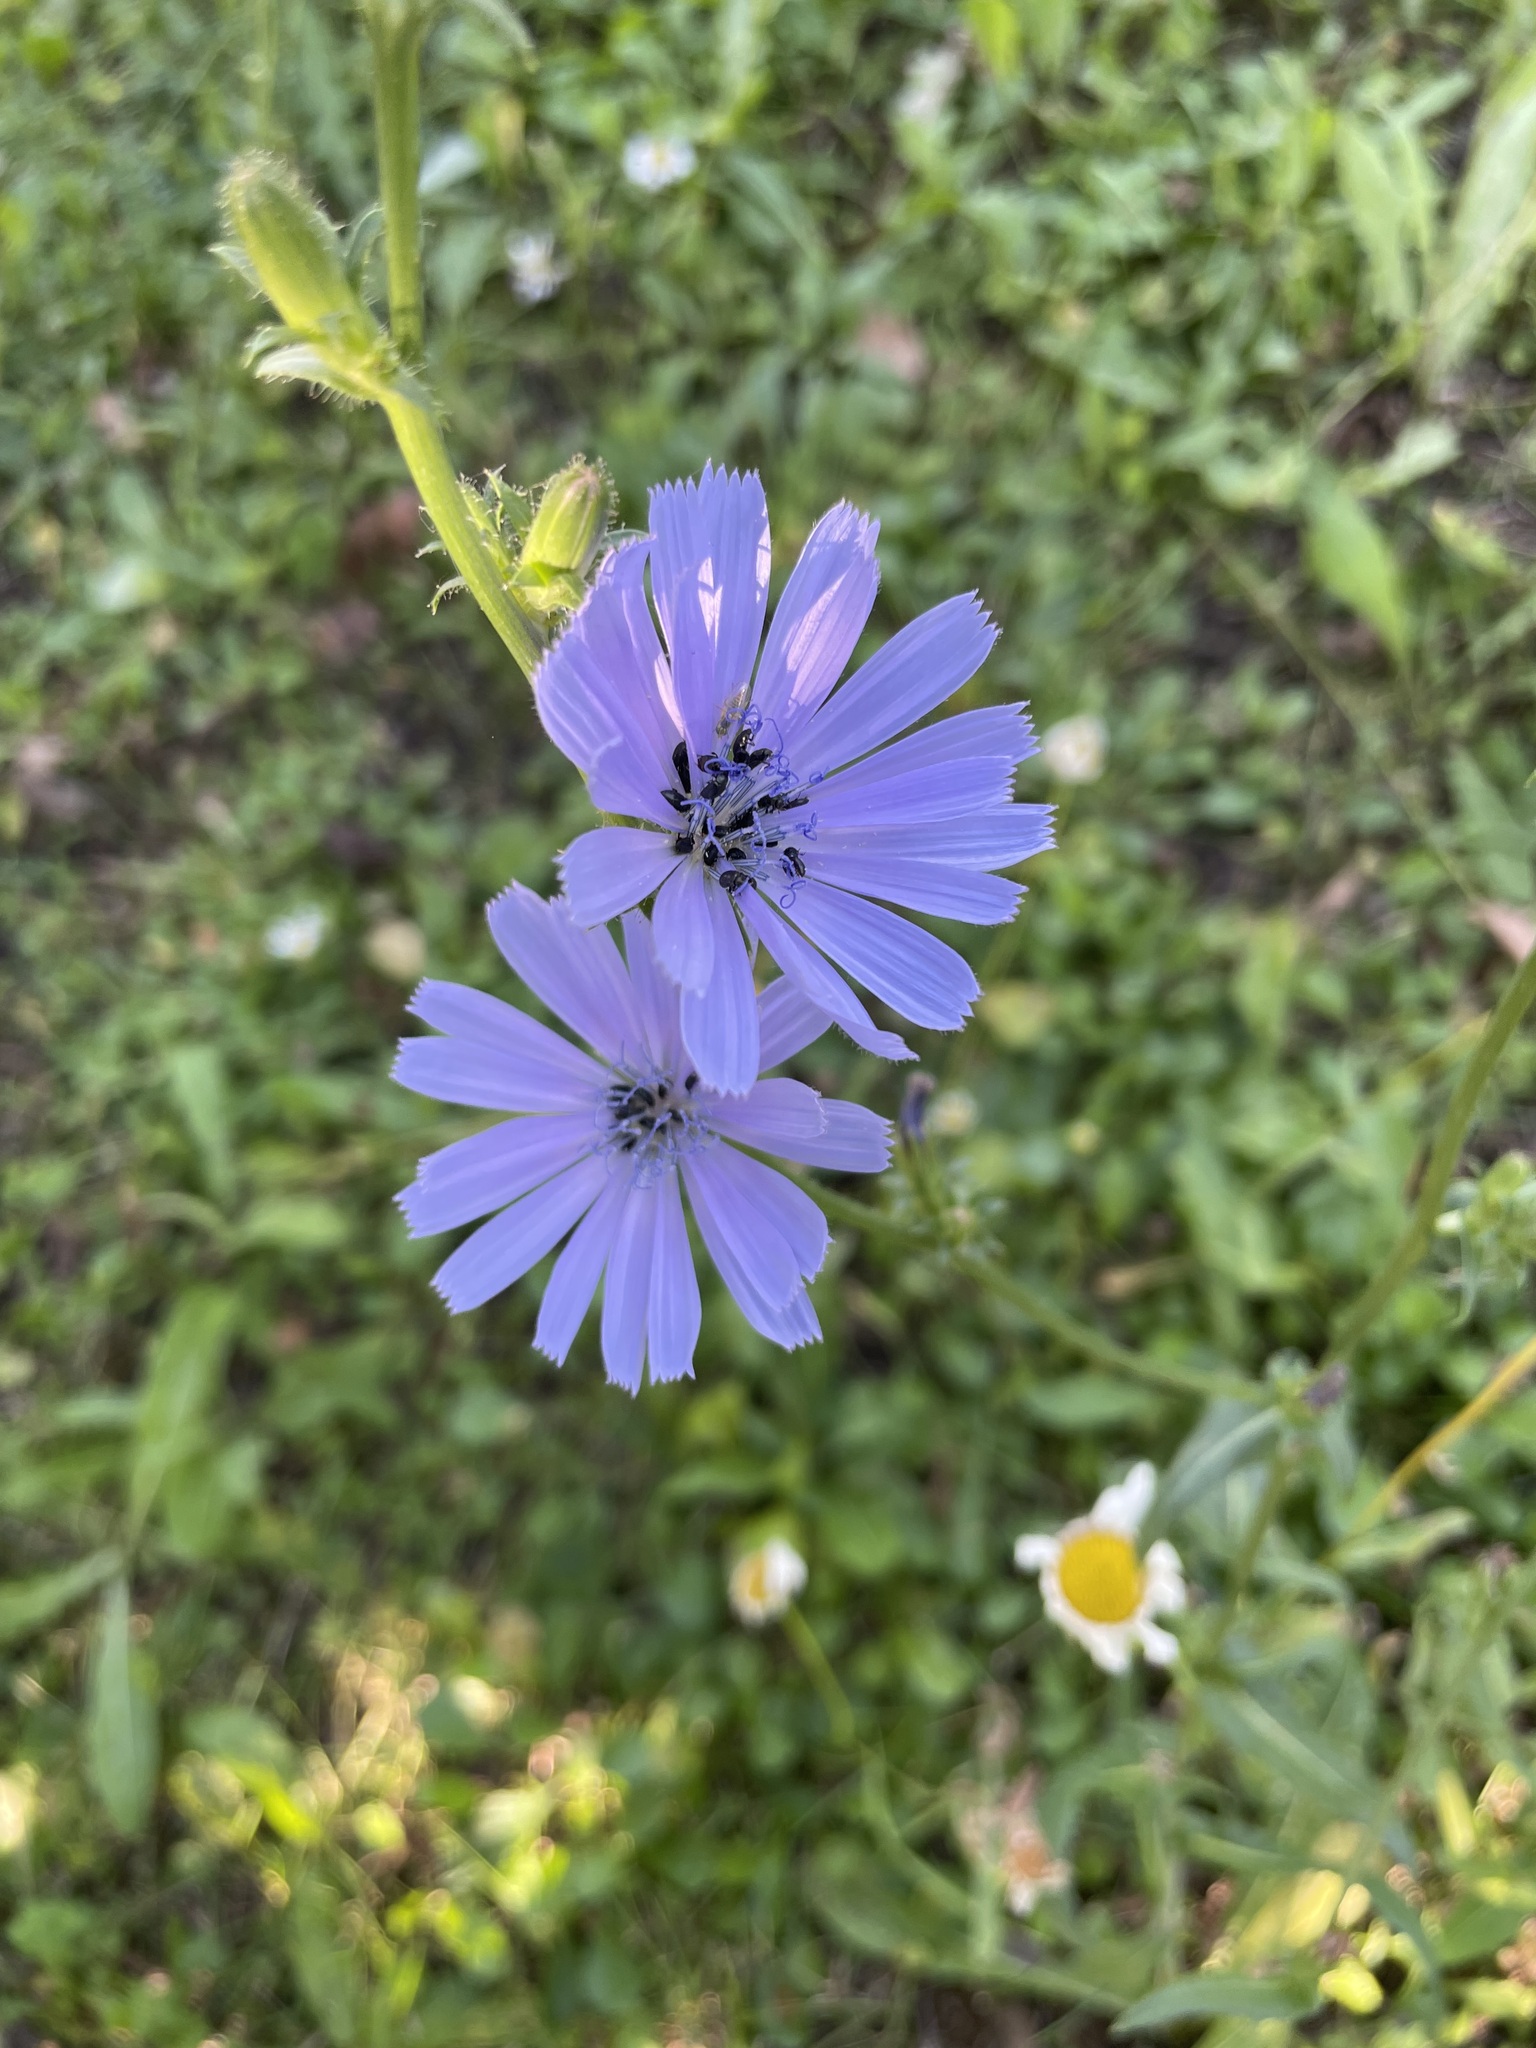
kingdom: Plantae
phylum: Tracheophyta
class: Magnoliopsida
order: Asterales
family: Asteraceae
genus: Cichorium
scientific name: Cichorium intybus
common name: Chicory
